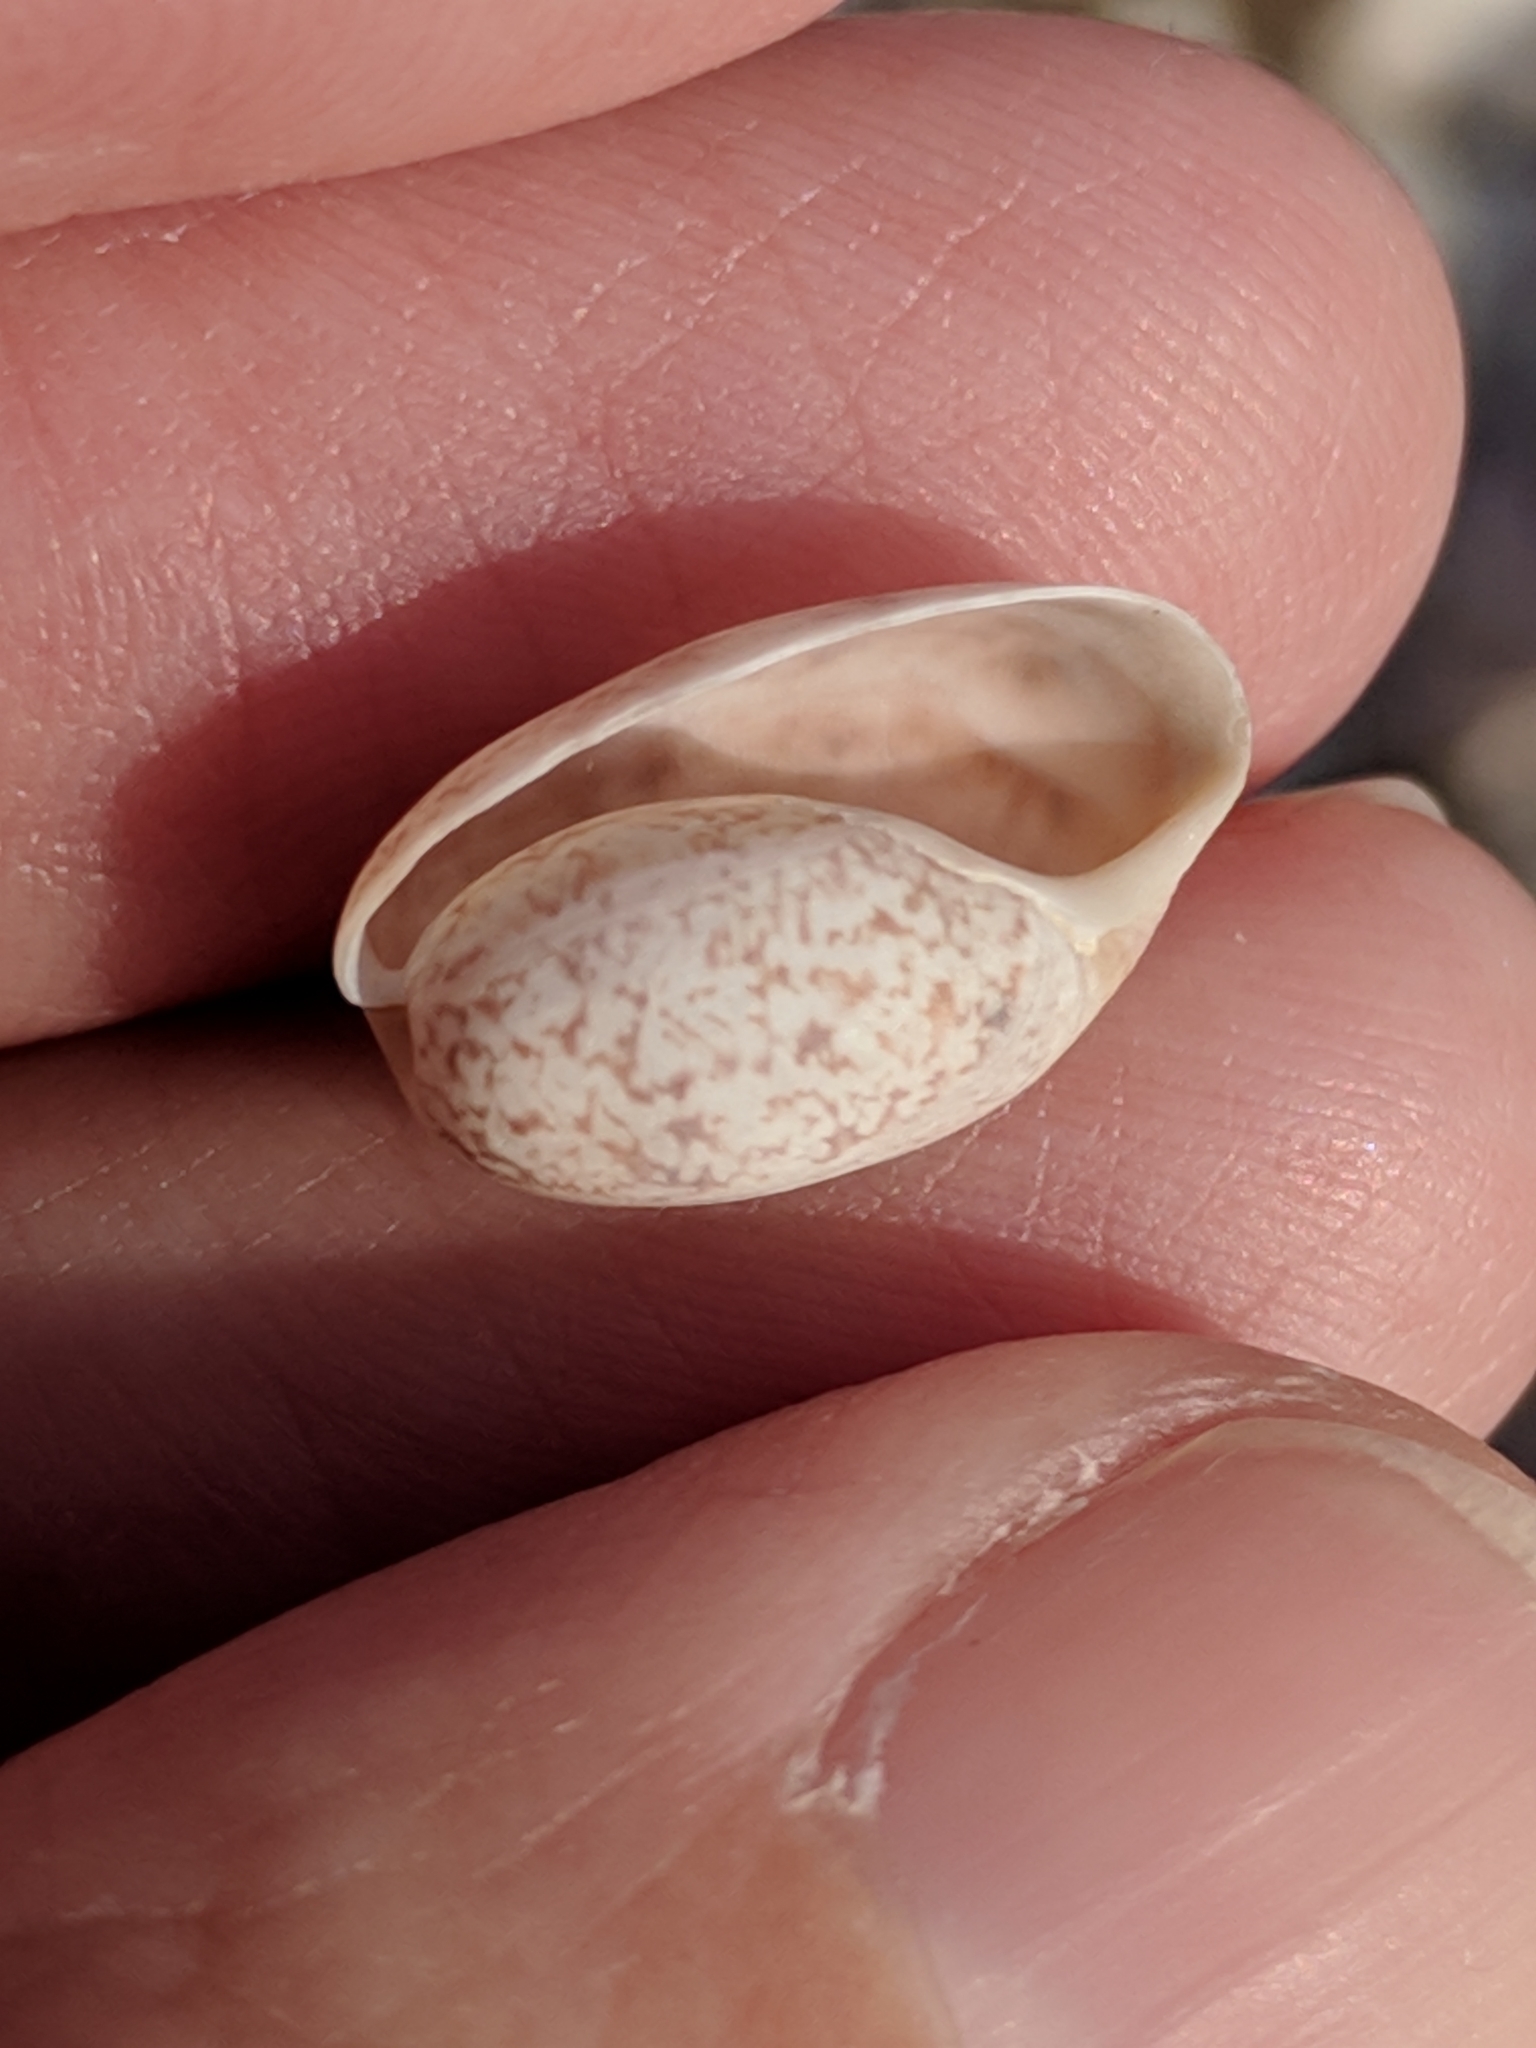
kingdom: Animalia
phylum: Mollusca
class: Gastropoda
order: Cephalaspidea
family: Bullidae
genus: Bulla
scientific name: Bulla occidentalis
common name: Common west-indian bubble
